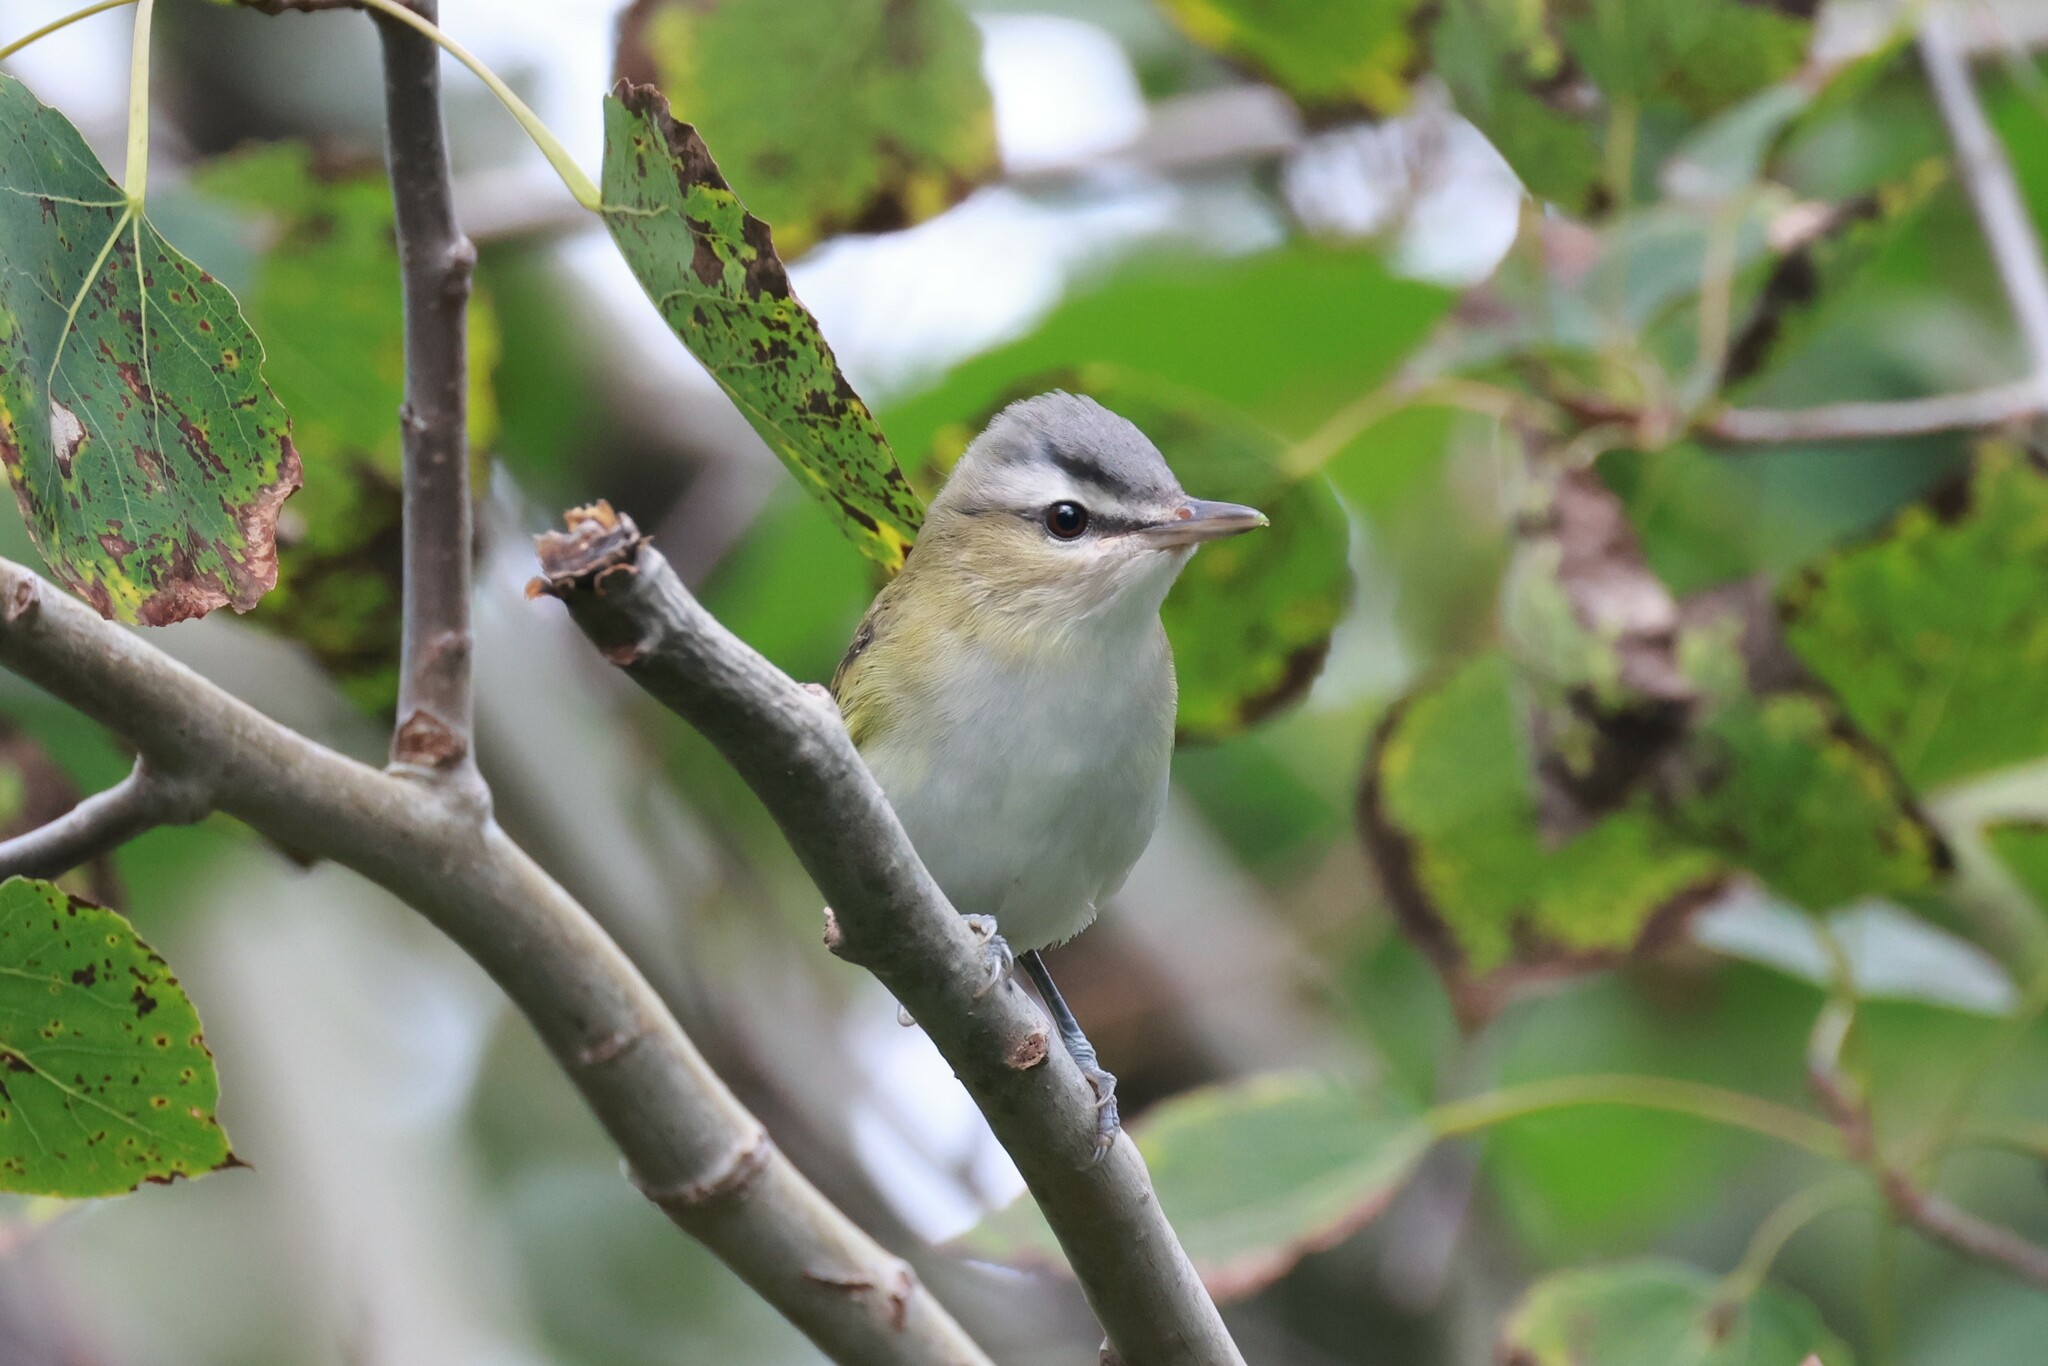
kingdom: Animalia
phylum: Chordata
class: Aves
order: Passeriformes
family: Vireonidae
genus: Vireo
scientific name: Vireo olivaceus
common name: Red-eyed vireo
